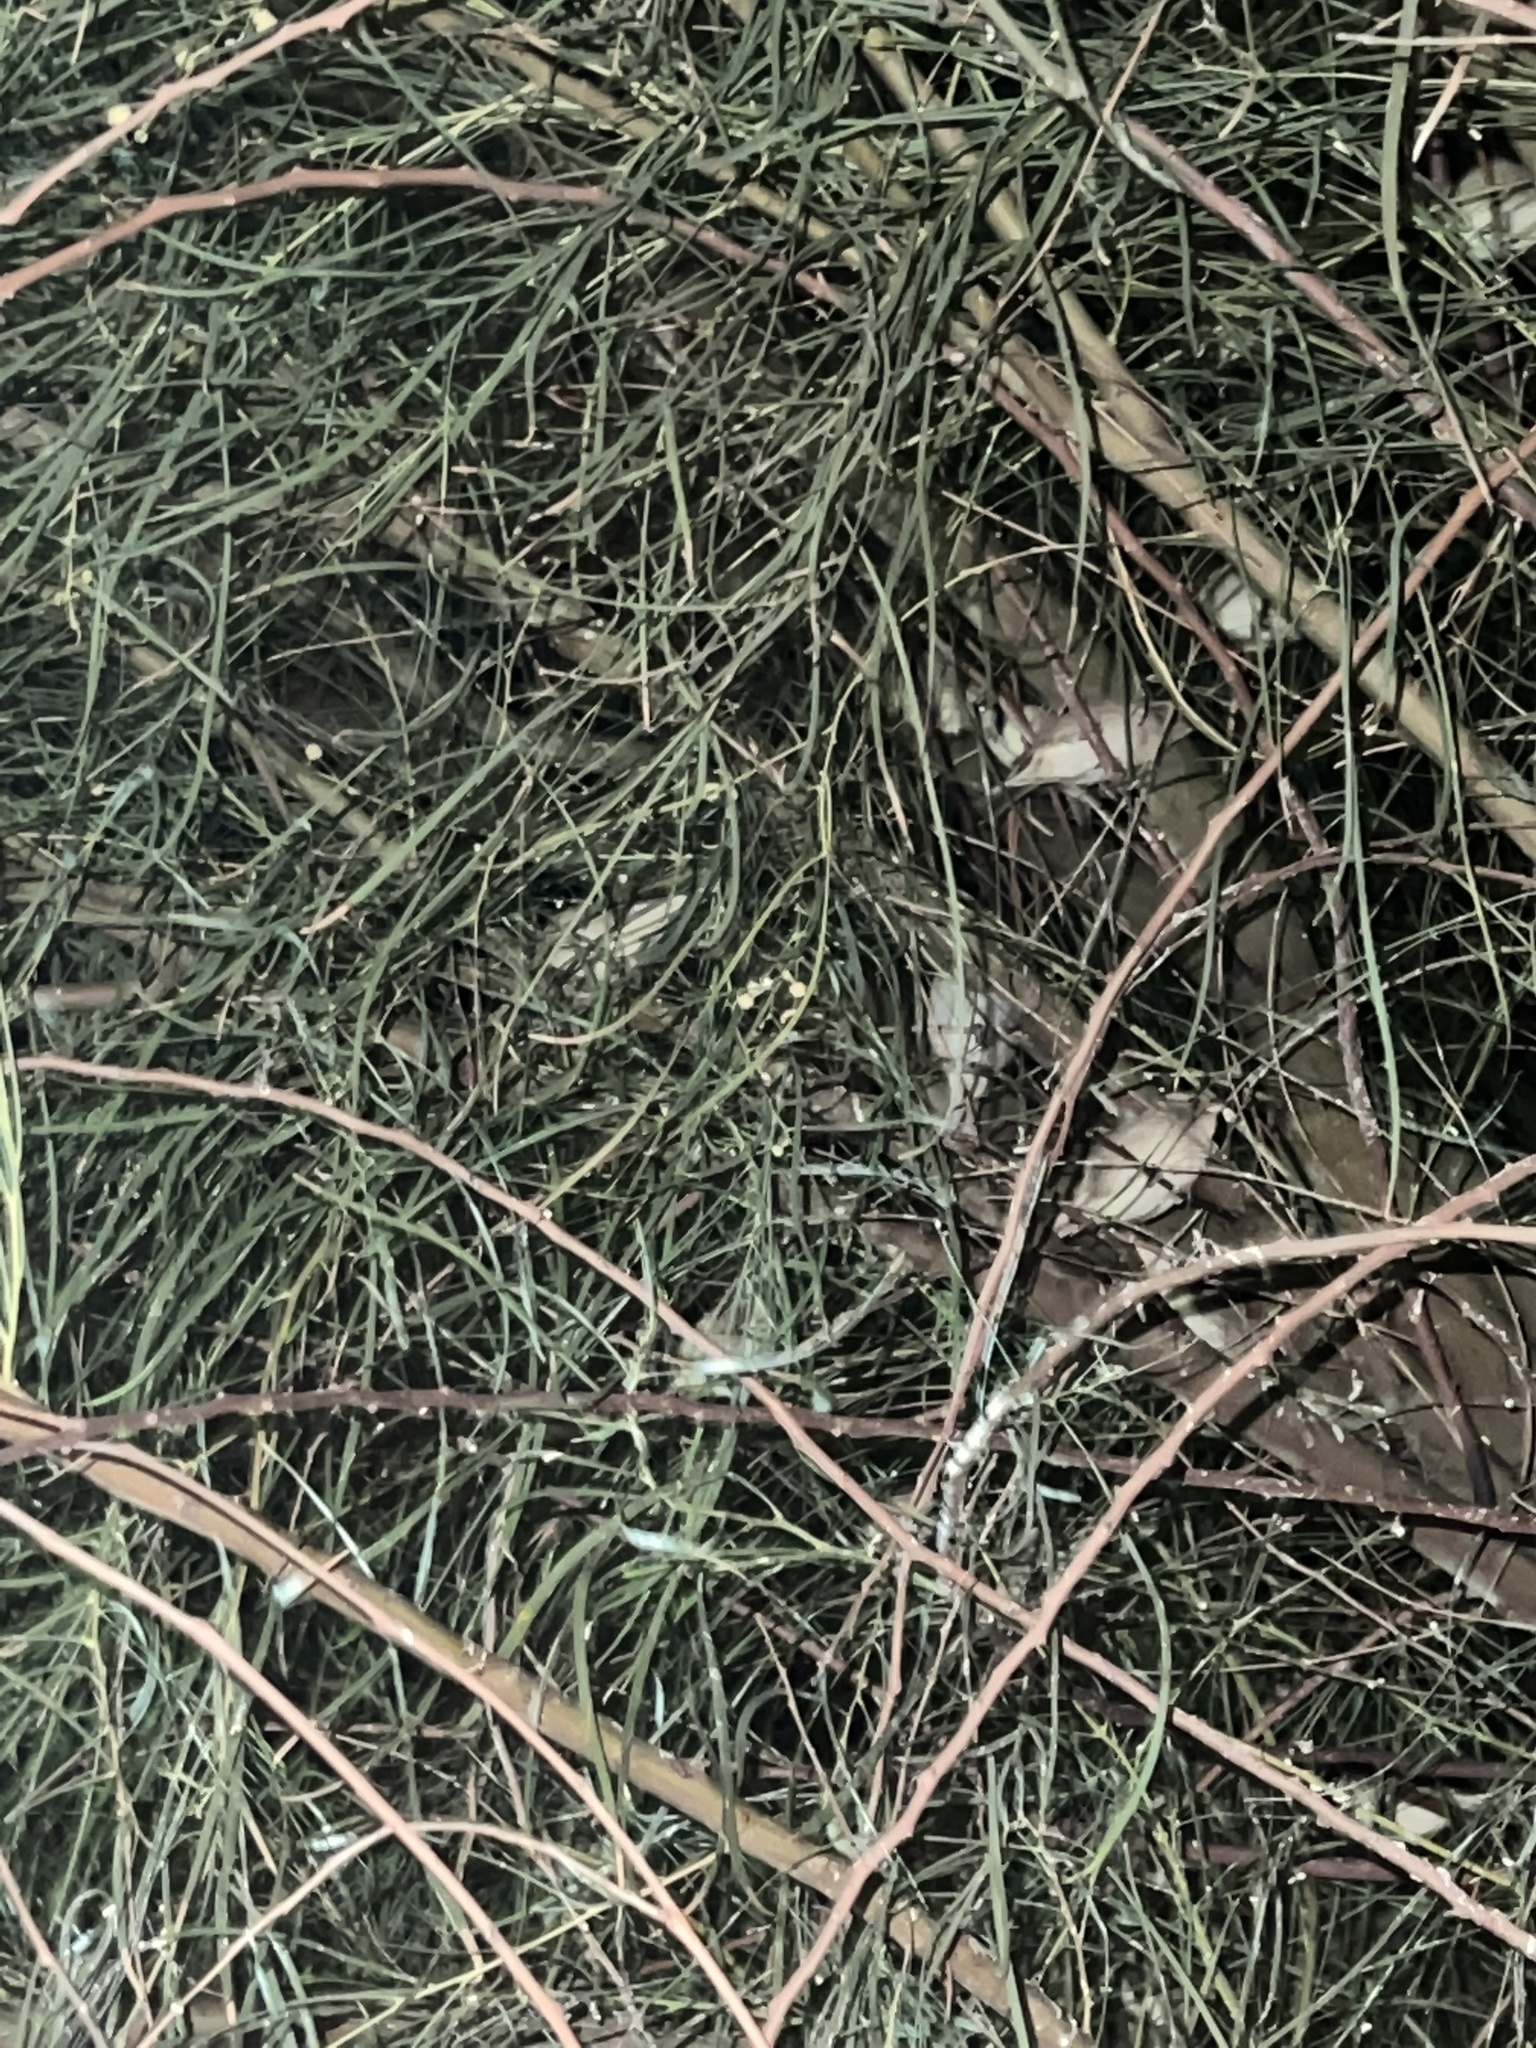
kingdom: Animalia
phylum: Chordata
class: Aves
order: Passeriformes
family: Passeridae
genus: Passer
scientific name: Passer domesticus
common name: House sparrow
